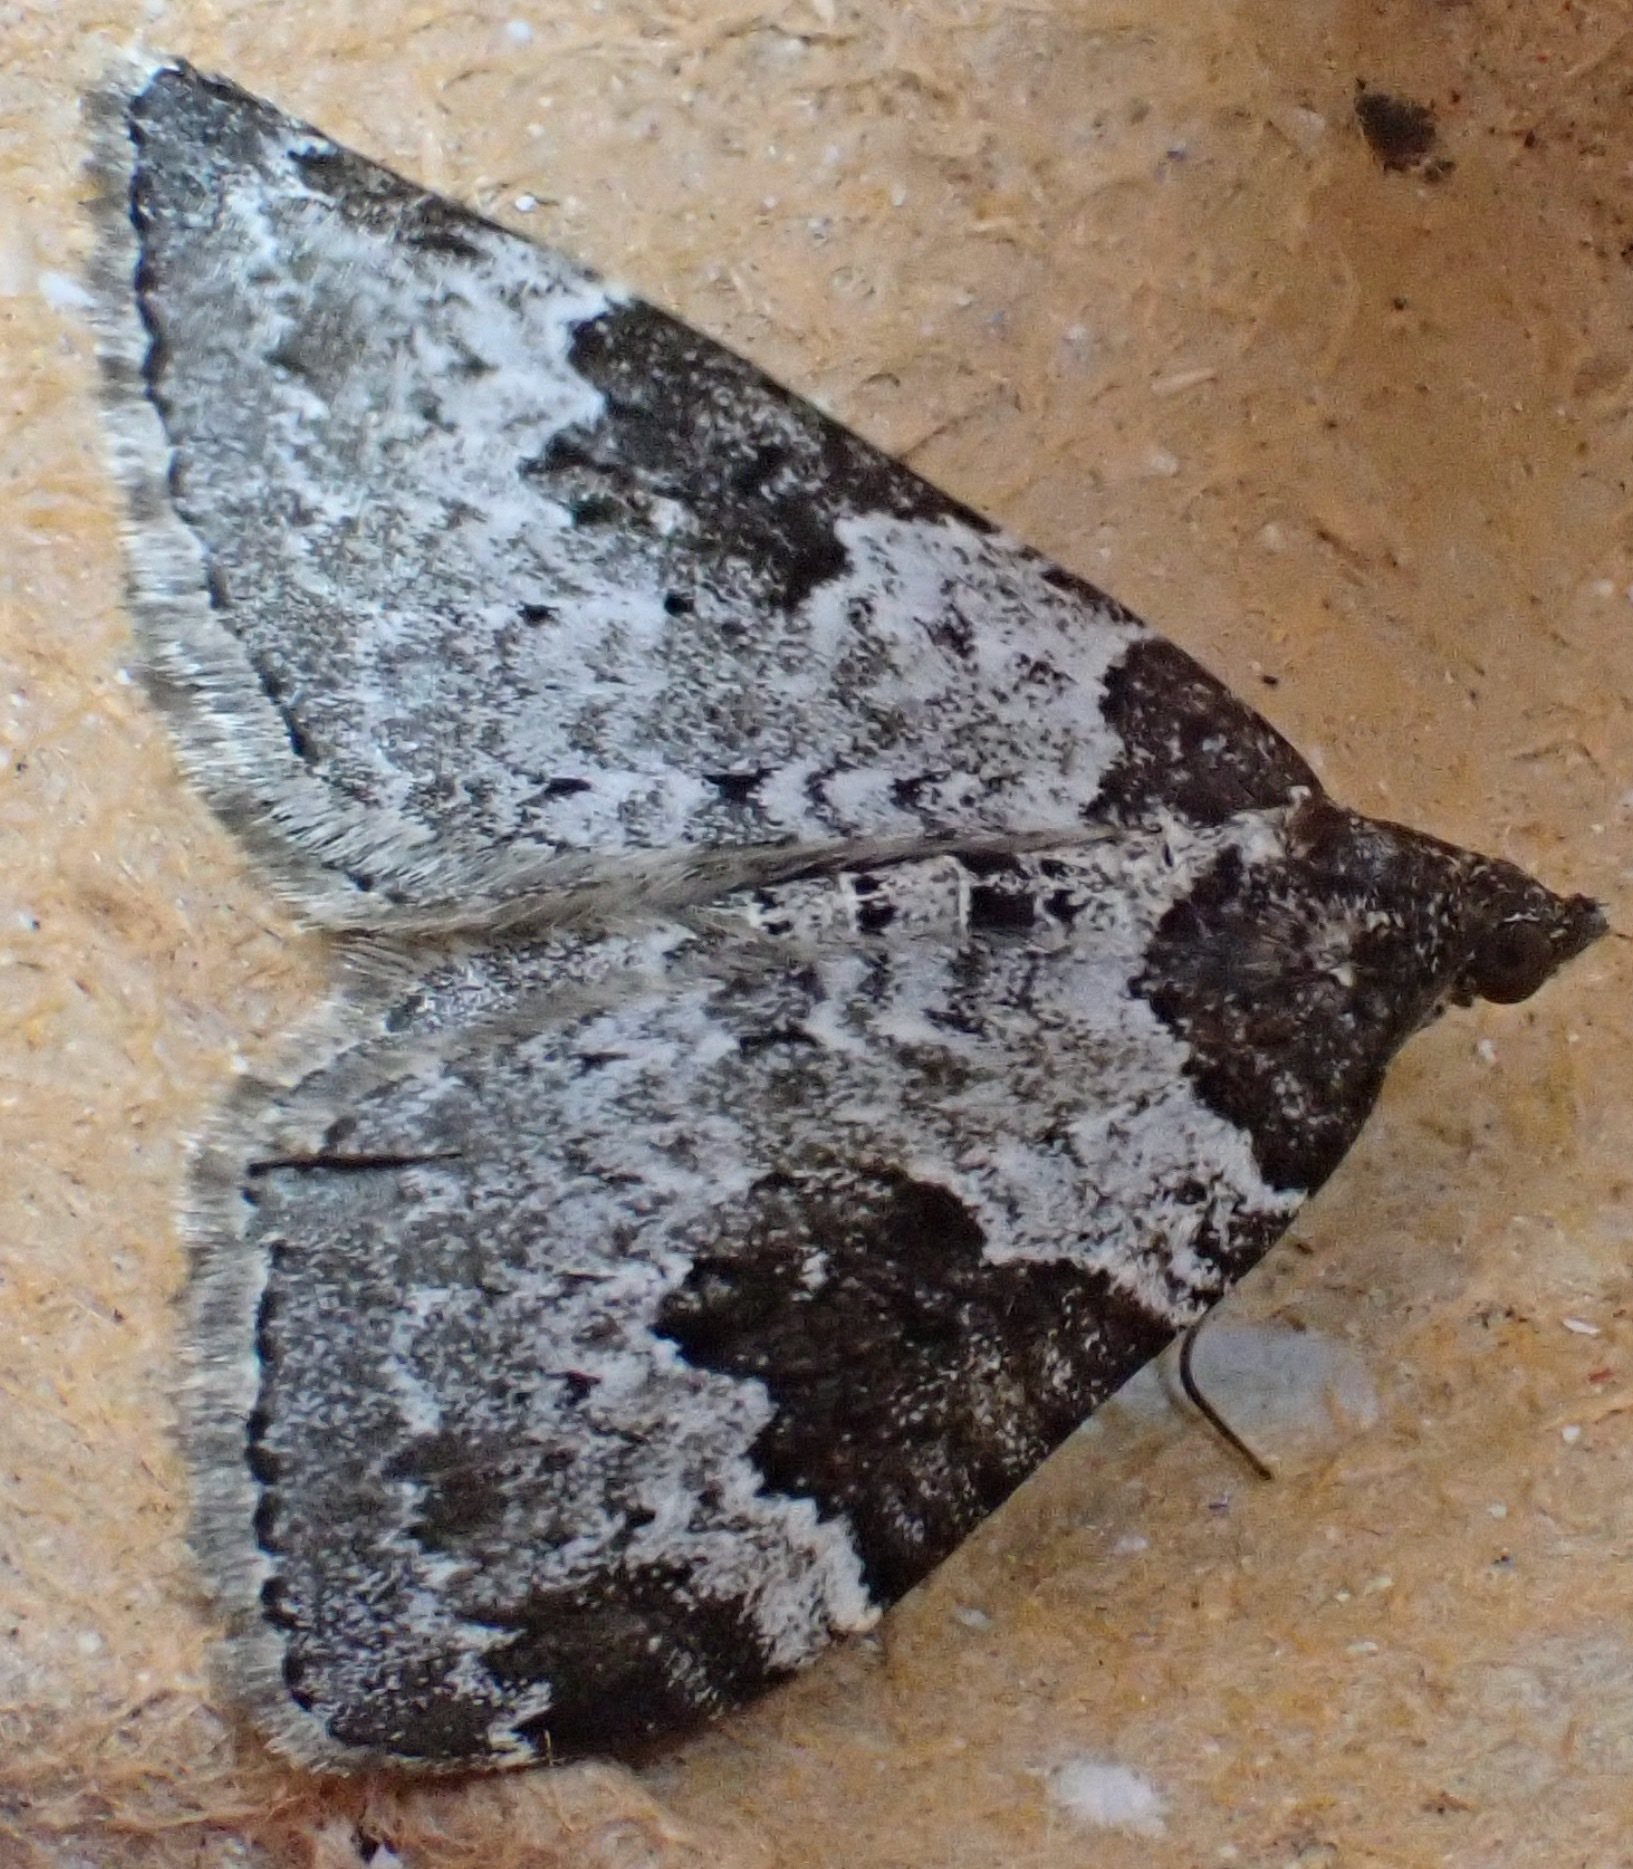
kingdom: Animalia
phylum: Arthropoda
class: Insecta
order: Lepidoptera
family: Geometridae
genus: Xanthorhoe
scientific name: Xanthorhoe fluctuata
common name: Garden carpet
